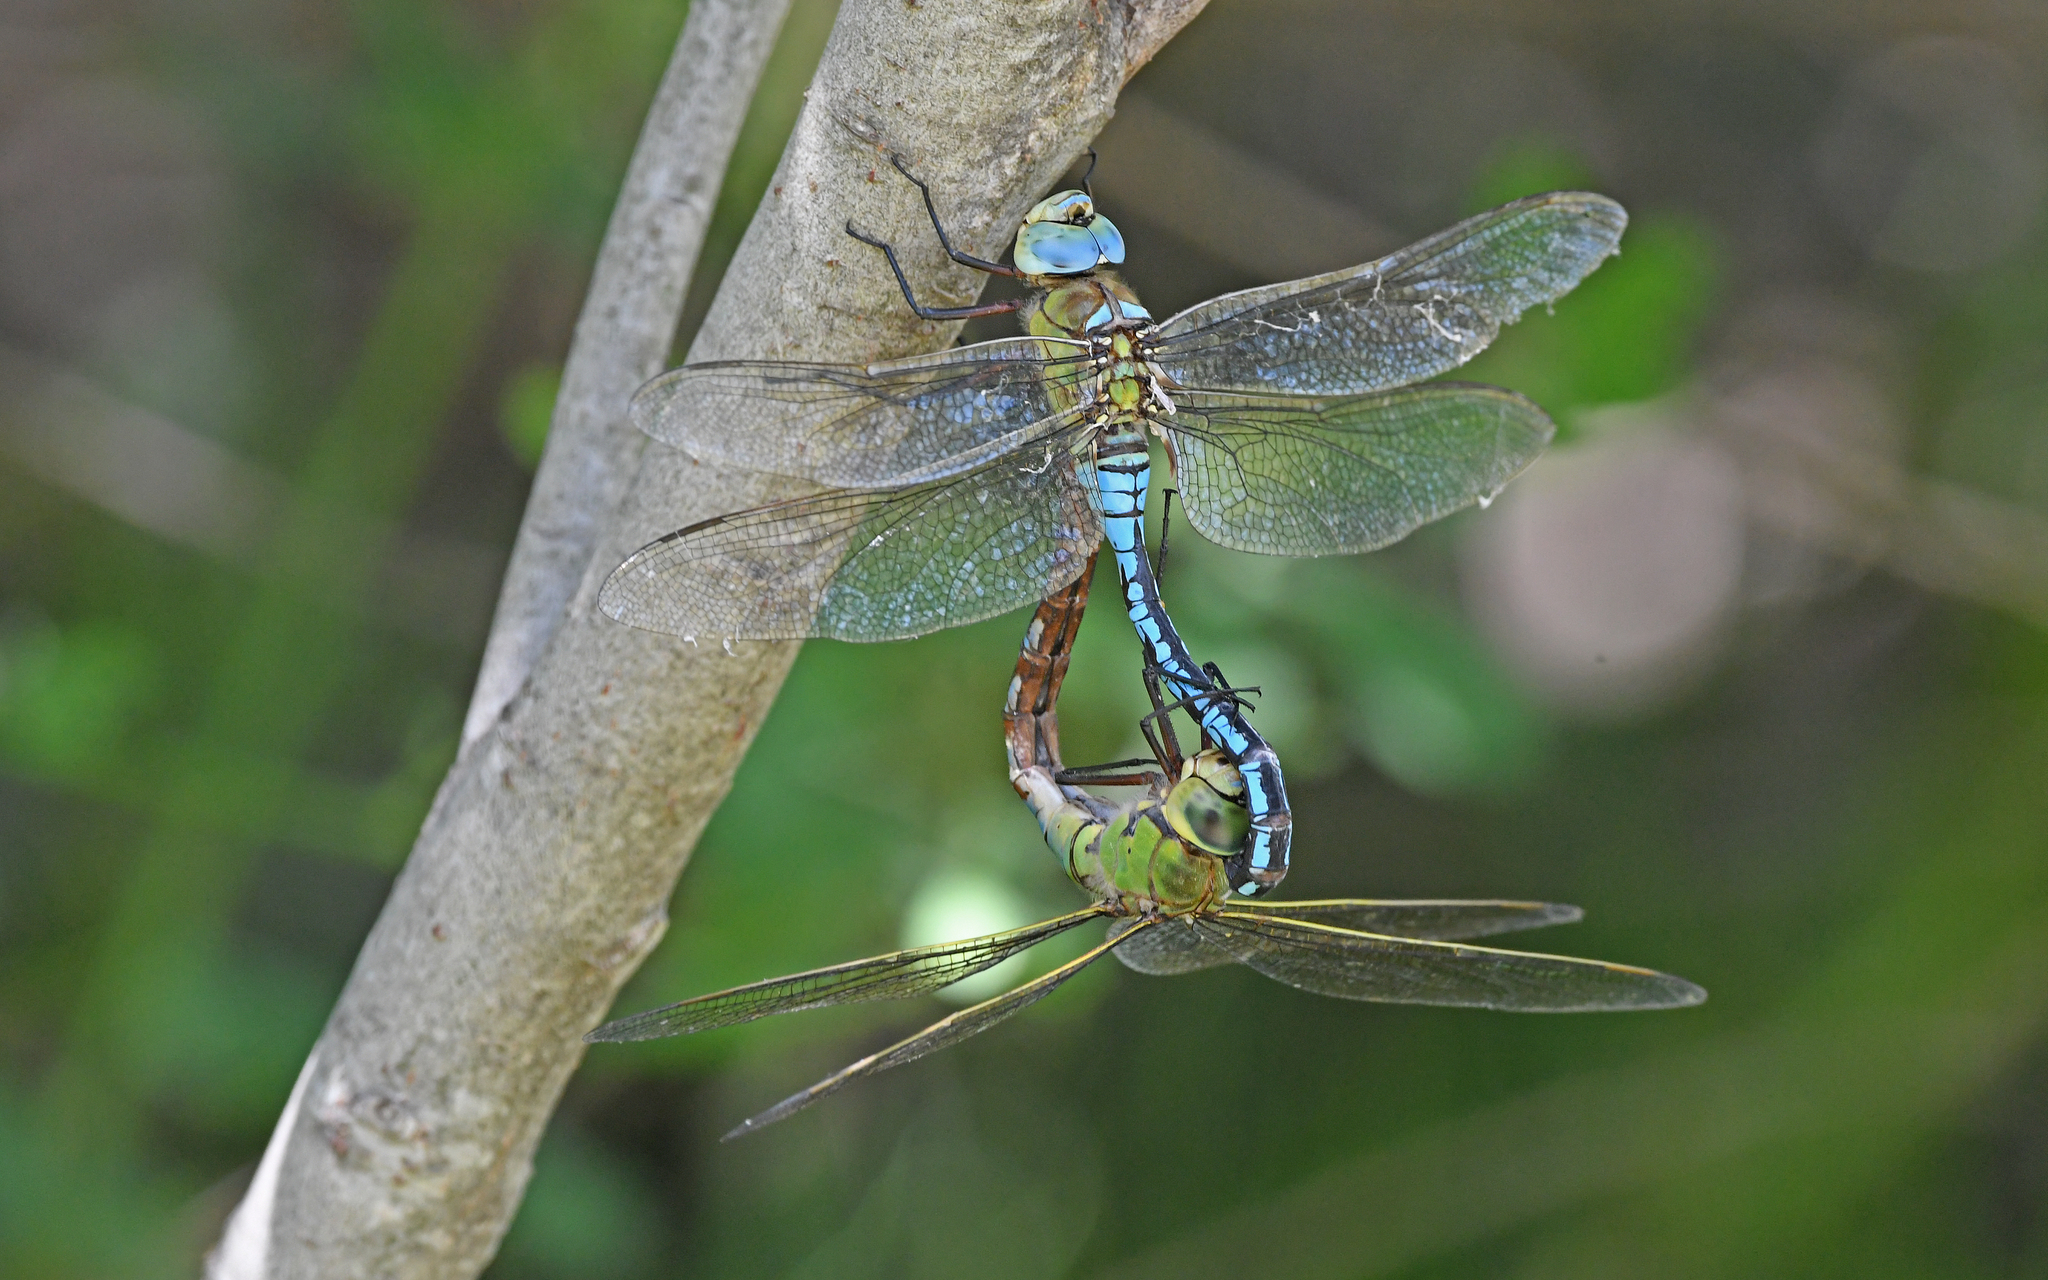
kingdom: Animalia
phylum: Arthropoda
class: Insecta
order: Odonata
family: Aeshnidae
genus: Anax
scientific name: Anax imperator
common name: Emperor dragonfly
